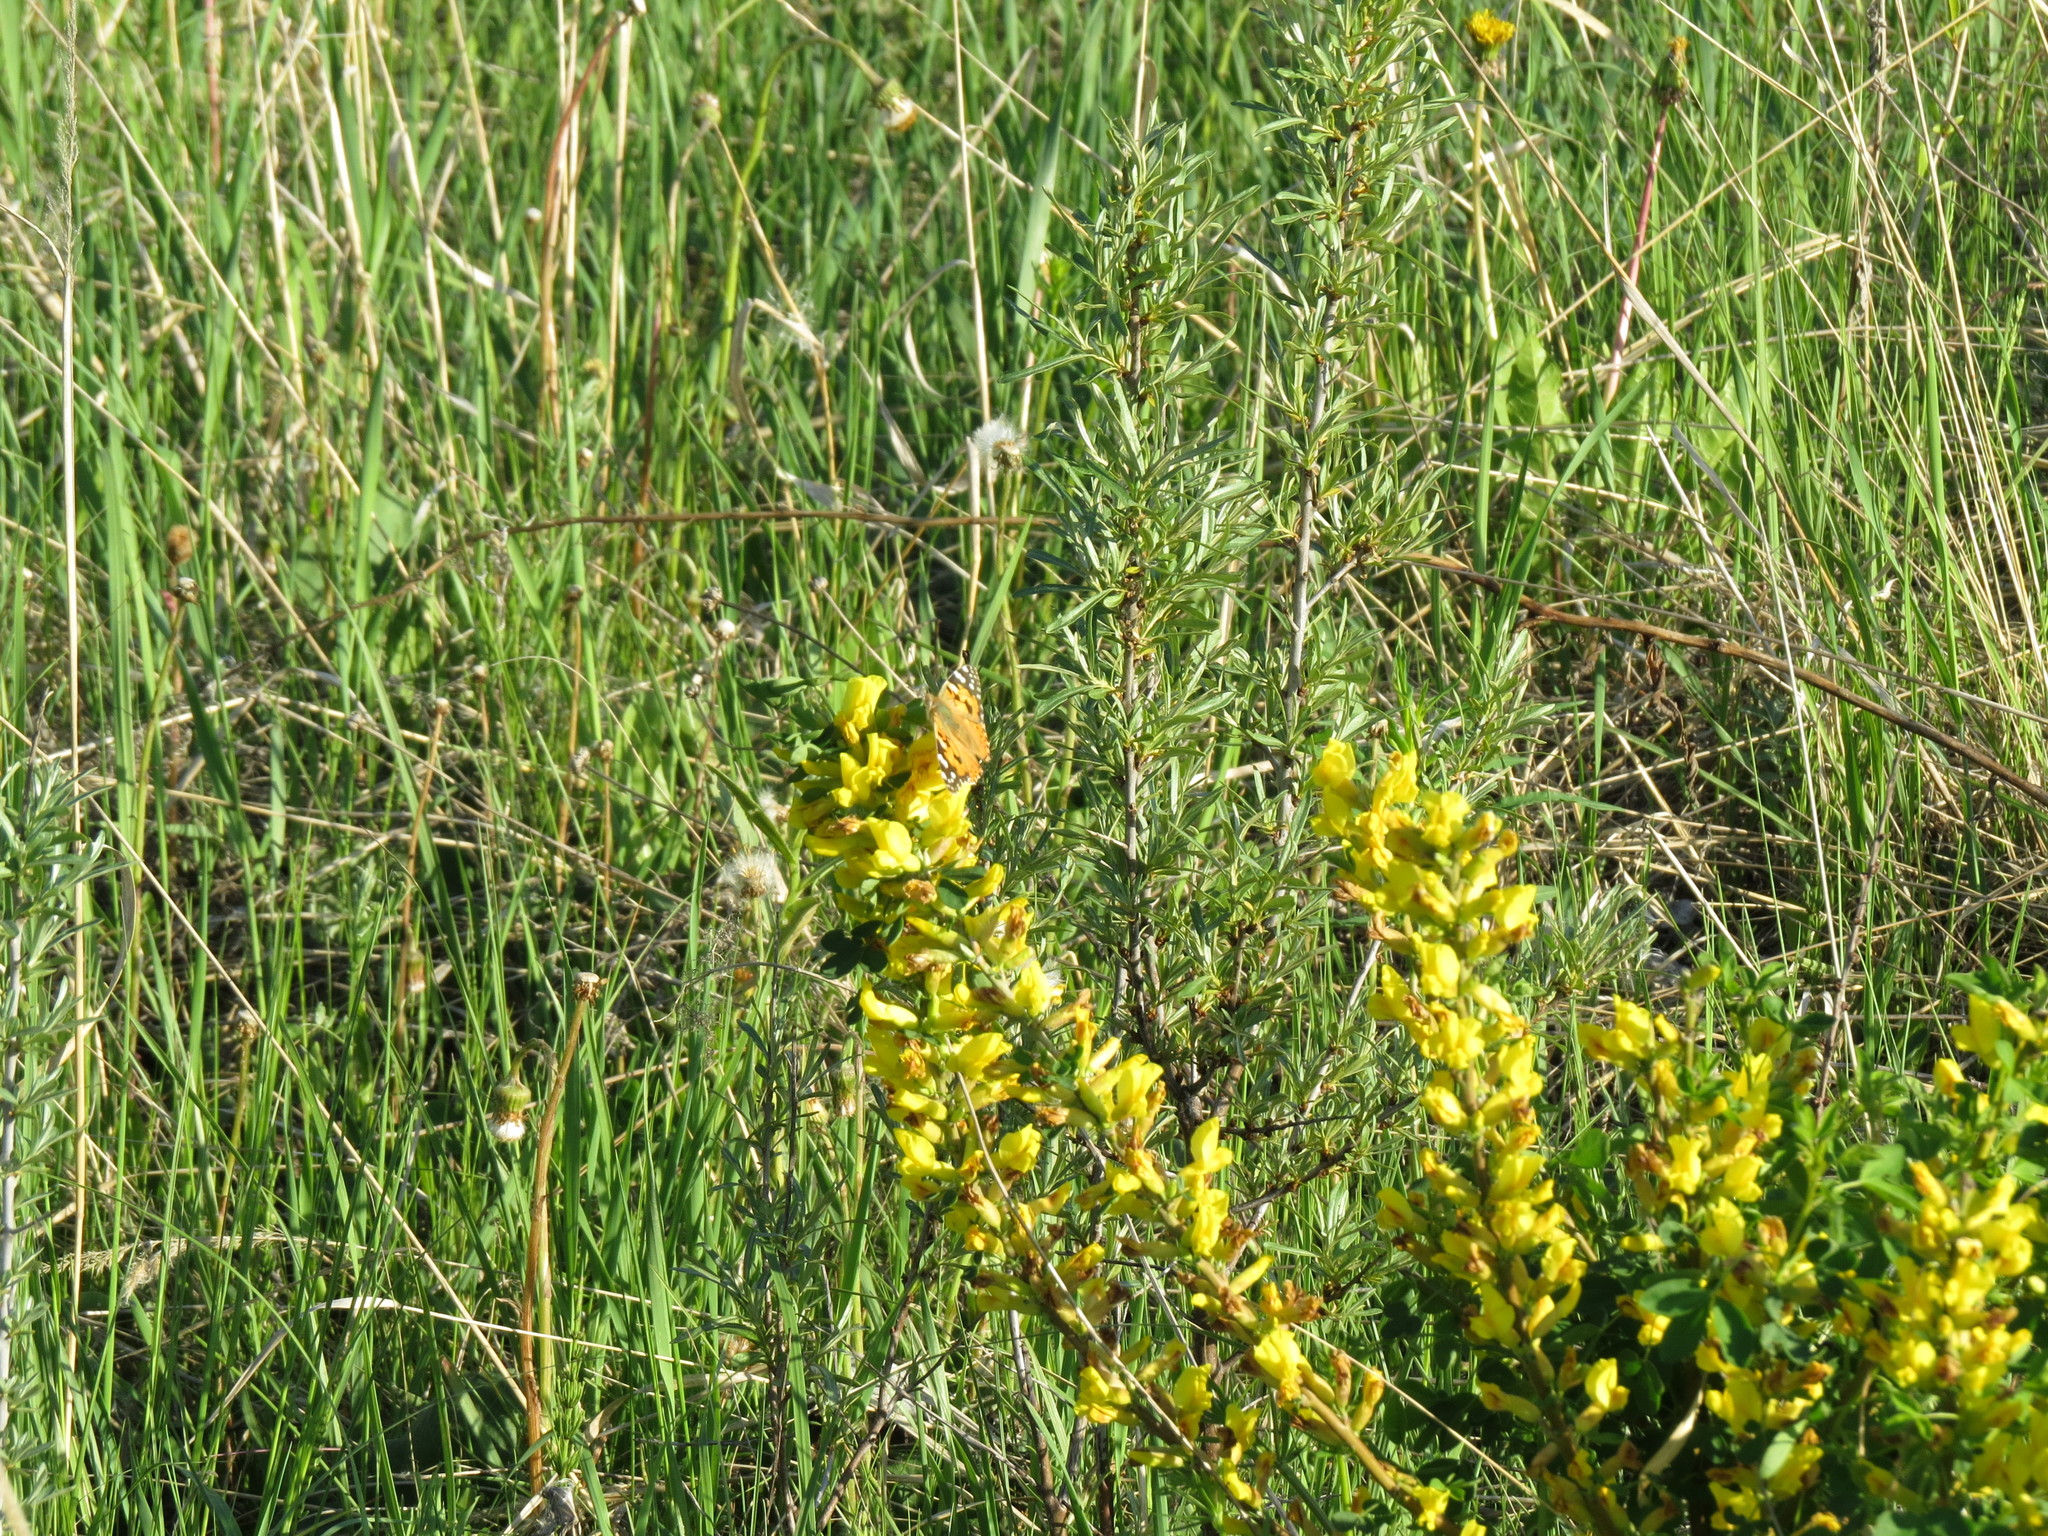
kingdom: Animalia
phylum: Arthropoda
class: Insecta
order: Lepidoptera
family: Nymphalidae
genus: Vanessa
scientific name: Vanessa cardui
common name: Painted lady
